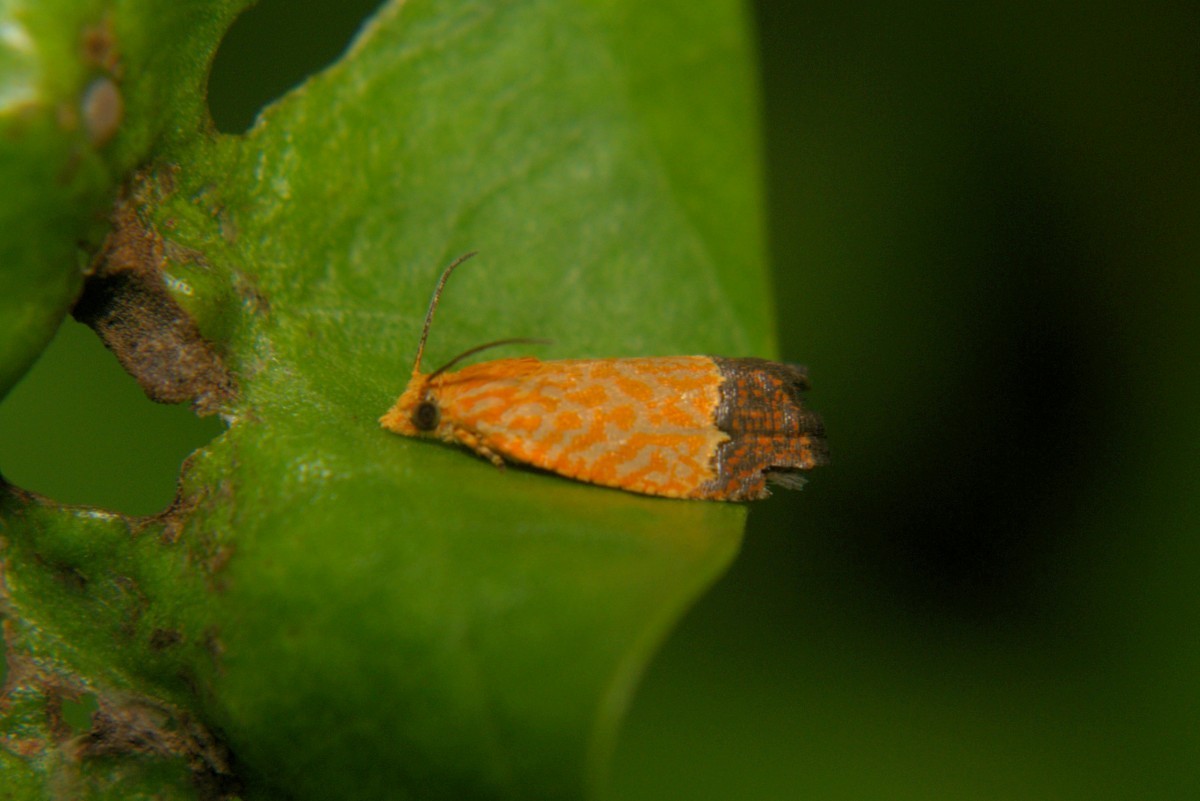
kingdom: Animalia
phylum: Arthropoda
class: Insecta
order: Lepidoptera
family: Tortricidae
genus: Loboschiza
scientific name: Loboschiza koenigiana
